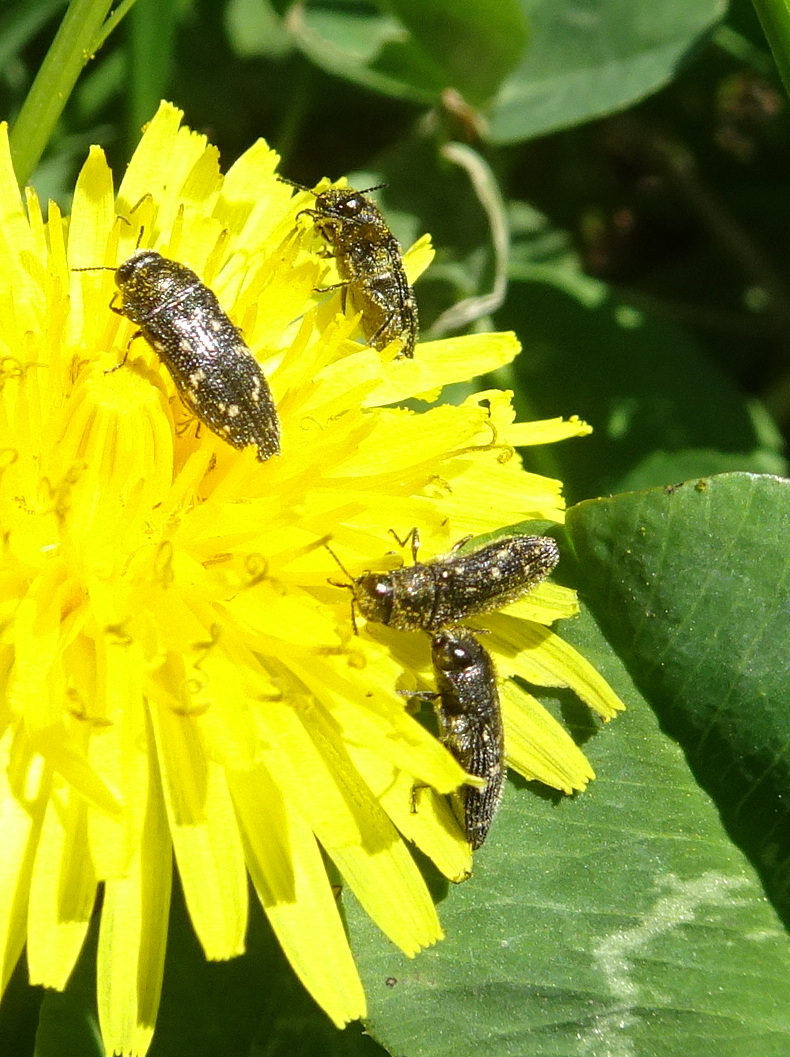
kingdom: Animalia
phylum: Arthropoda
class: Insecta
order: Coleoptera
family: Buprestidae
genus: Acmaeodera
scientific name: Acmaeodera tubulus
